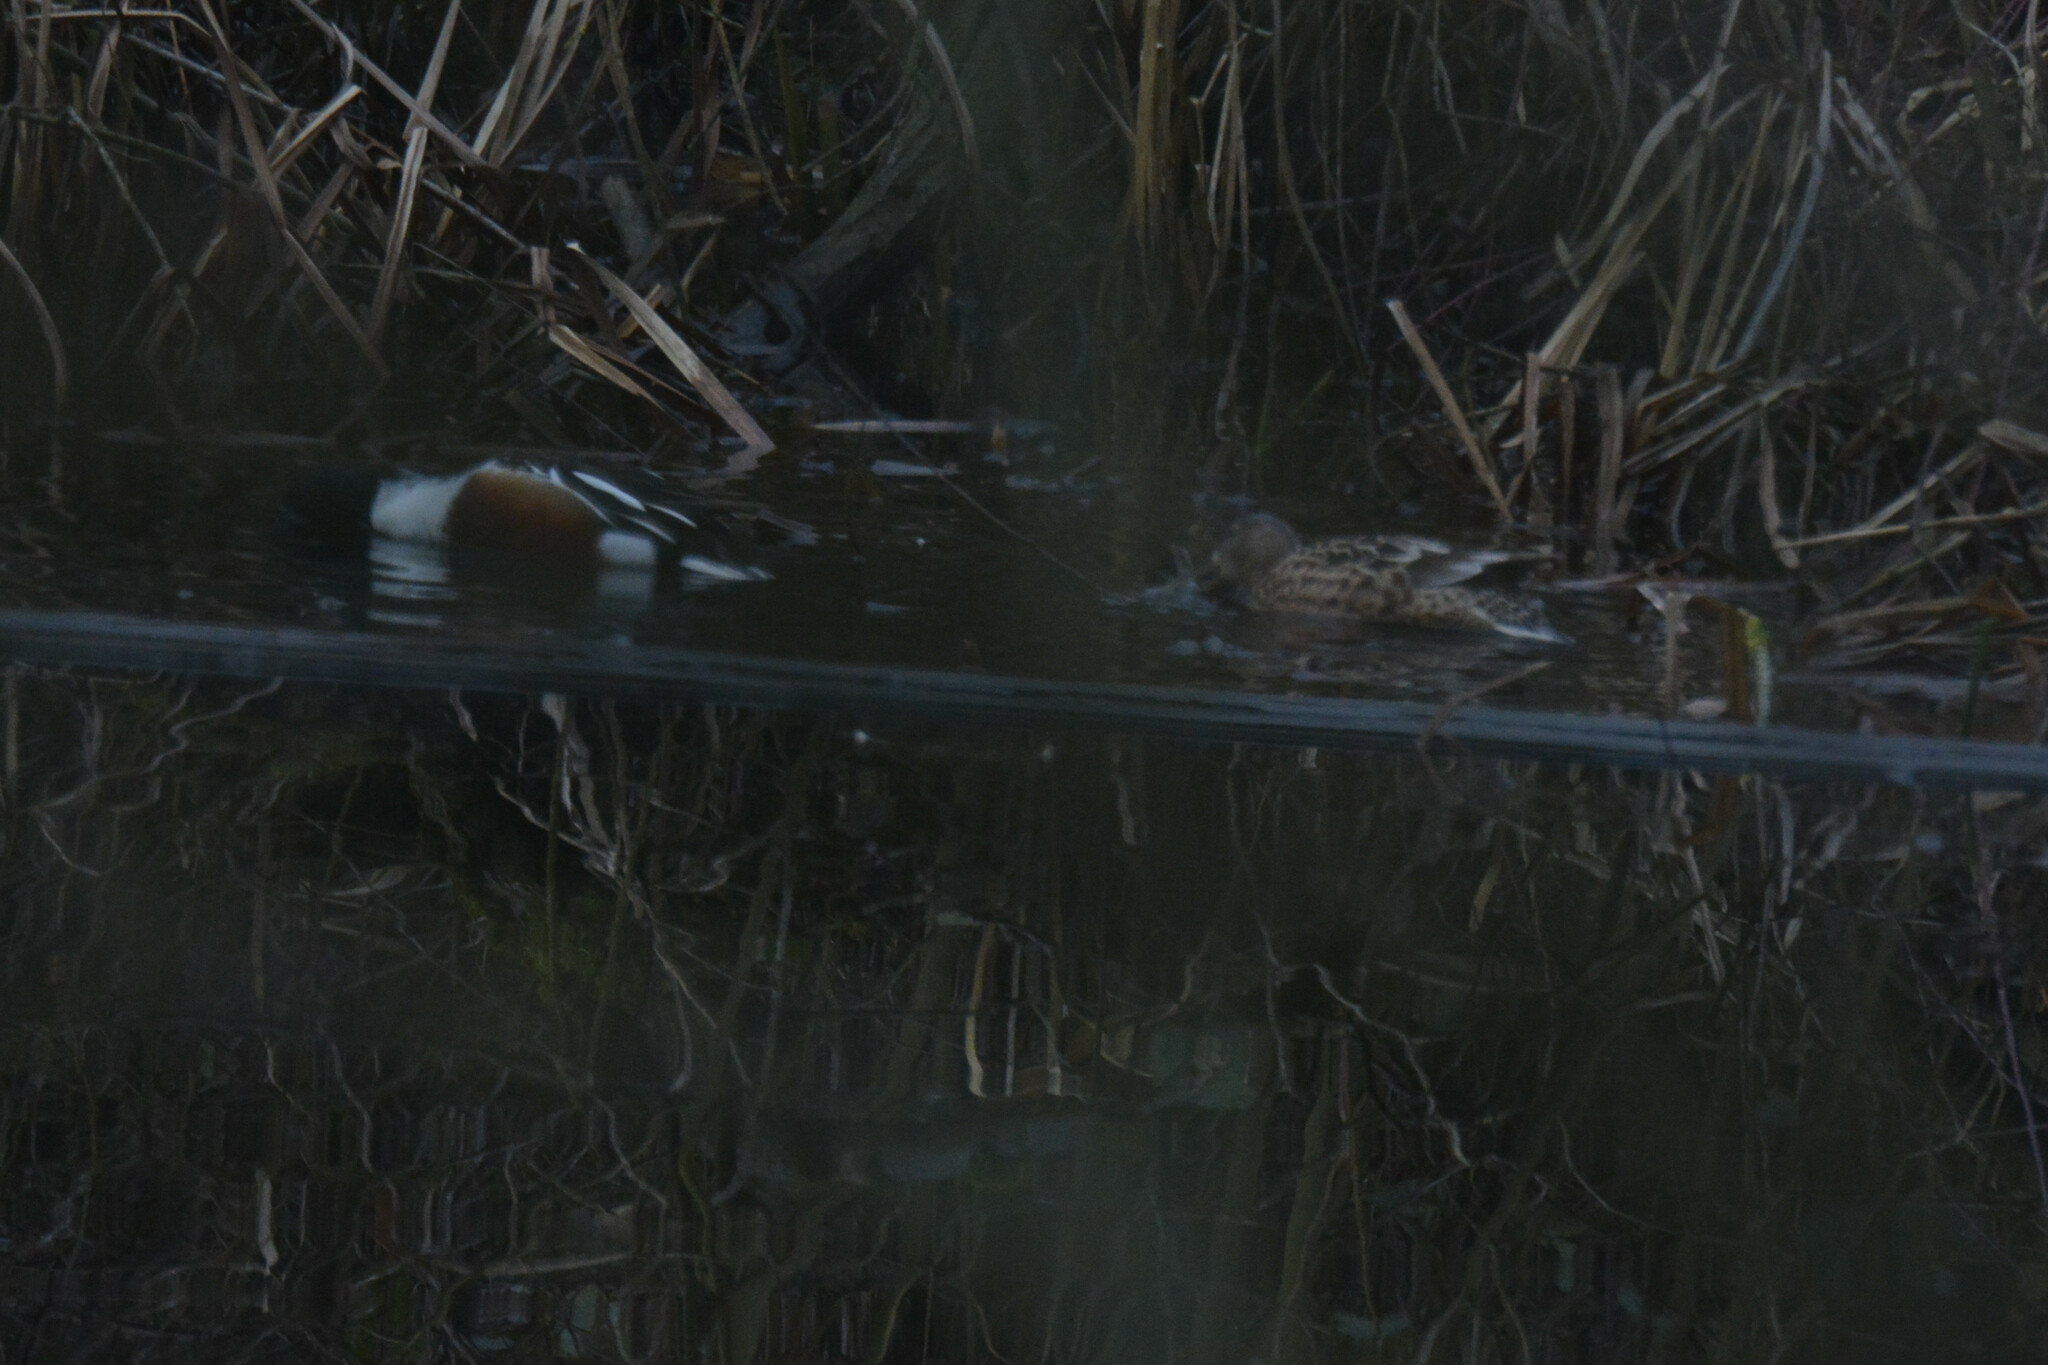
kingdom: Animalia
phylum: Chordata
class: Aves
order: Anseriformes
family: Anatidae
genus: Spatula
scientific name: Spatula clypeata
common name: Northern shoveler
